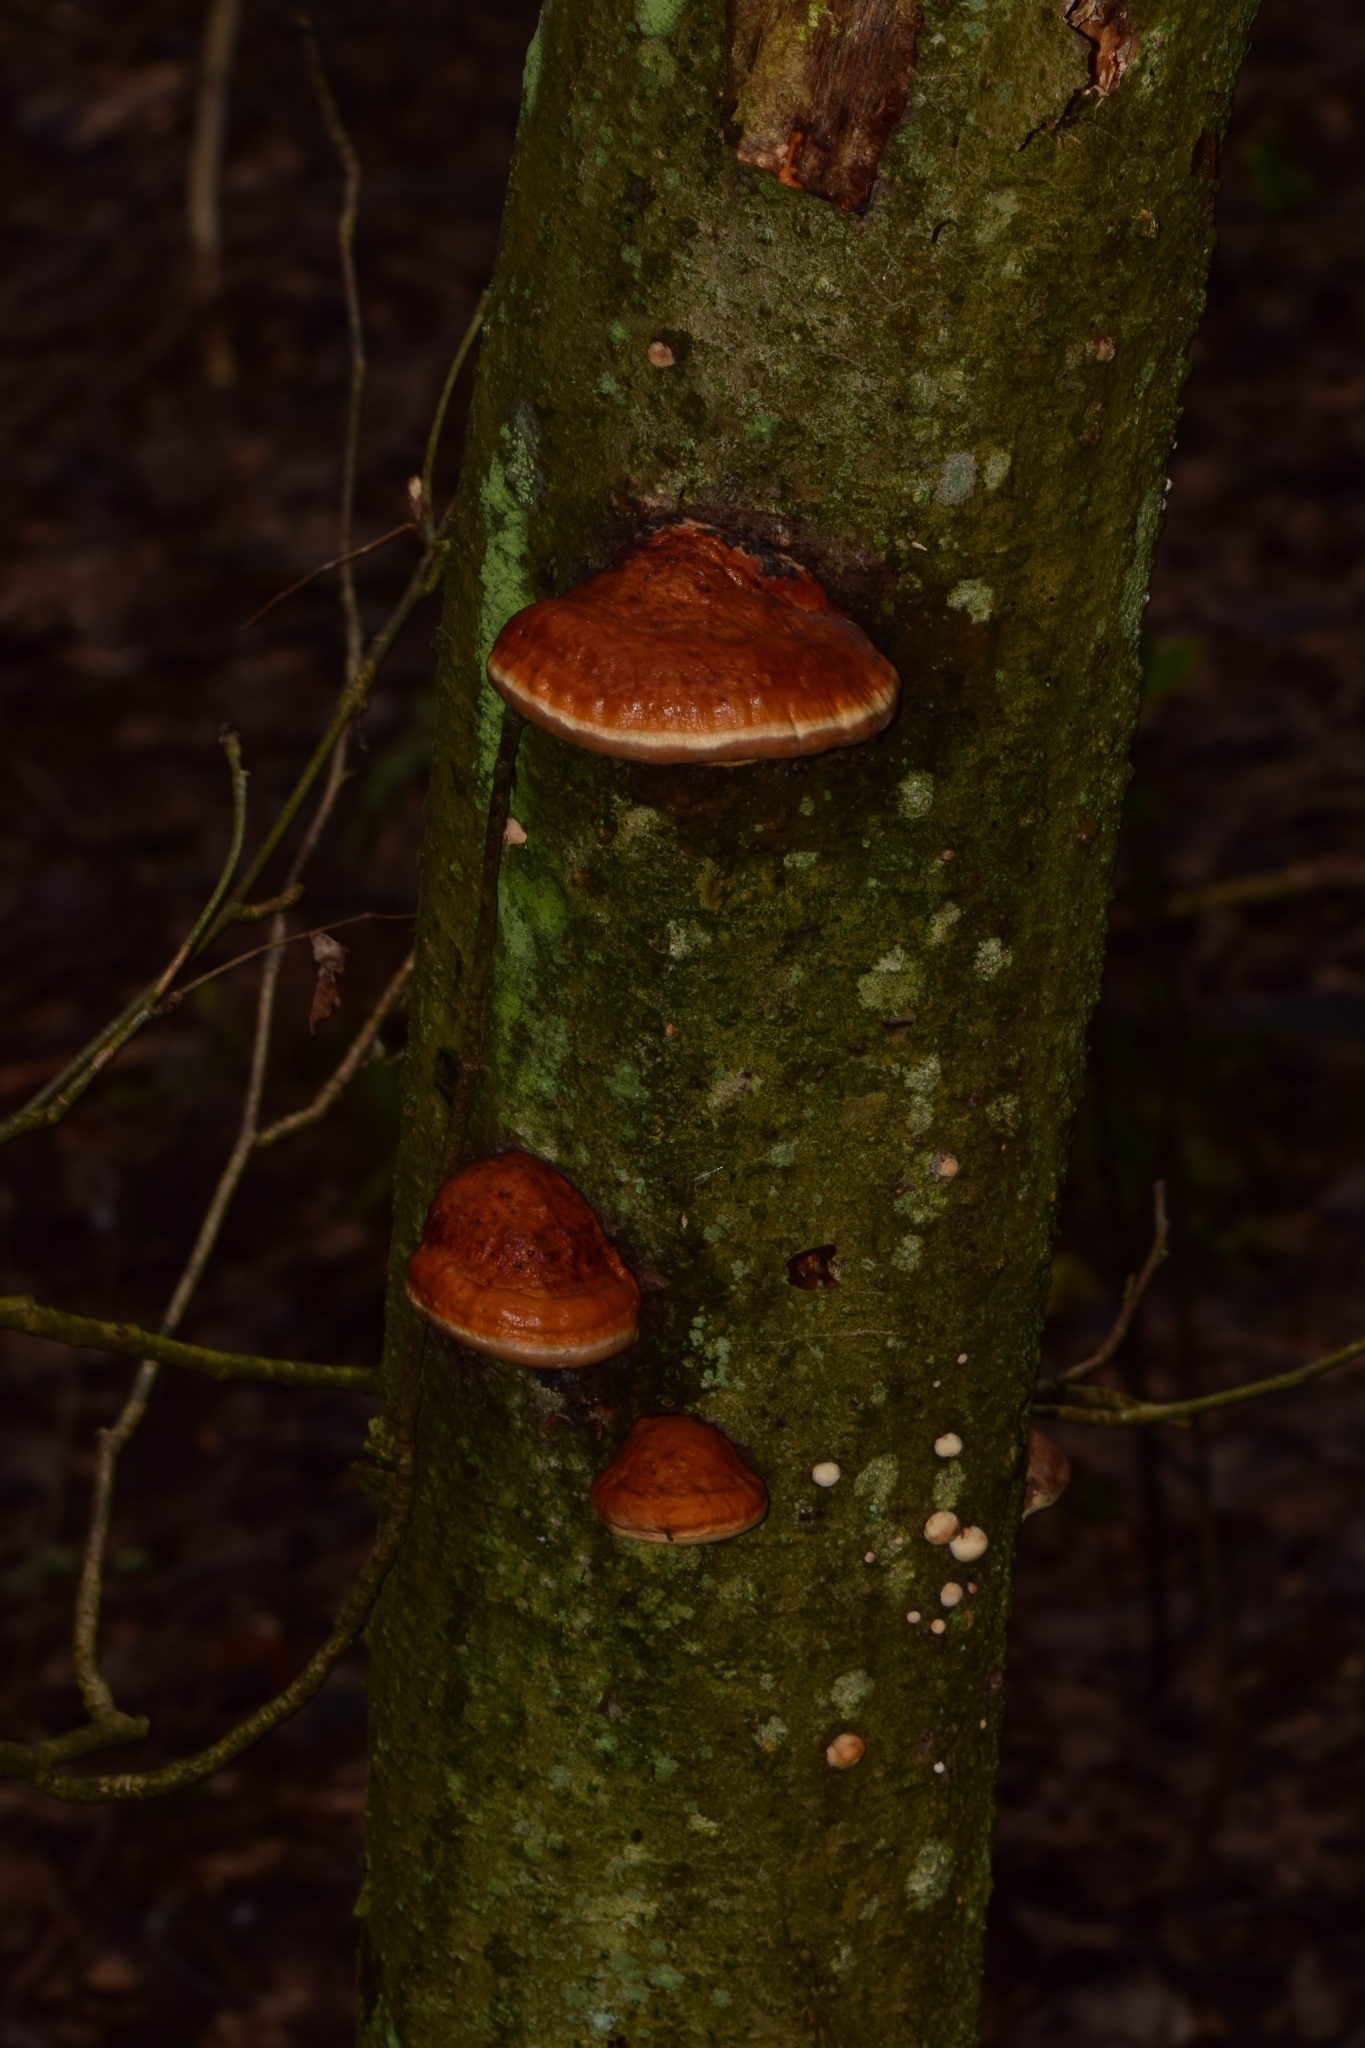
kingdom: Fungi
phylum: Basidiomycota
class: Agaricomycetes
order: Polyporales
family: Fomitopsidaceae
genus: Fomitopsis
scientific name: Fomitopsis pinicola
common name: Red-belted bracket
